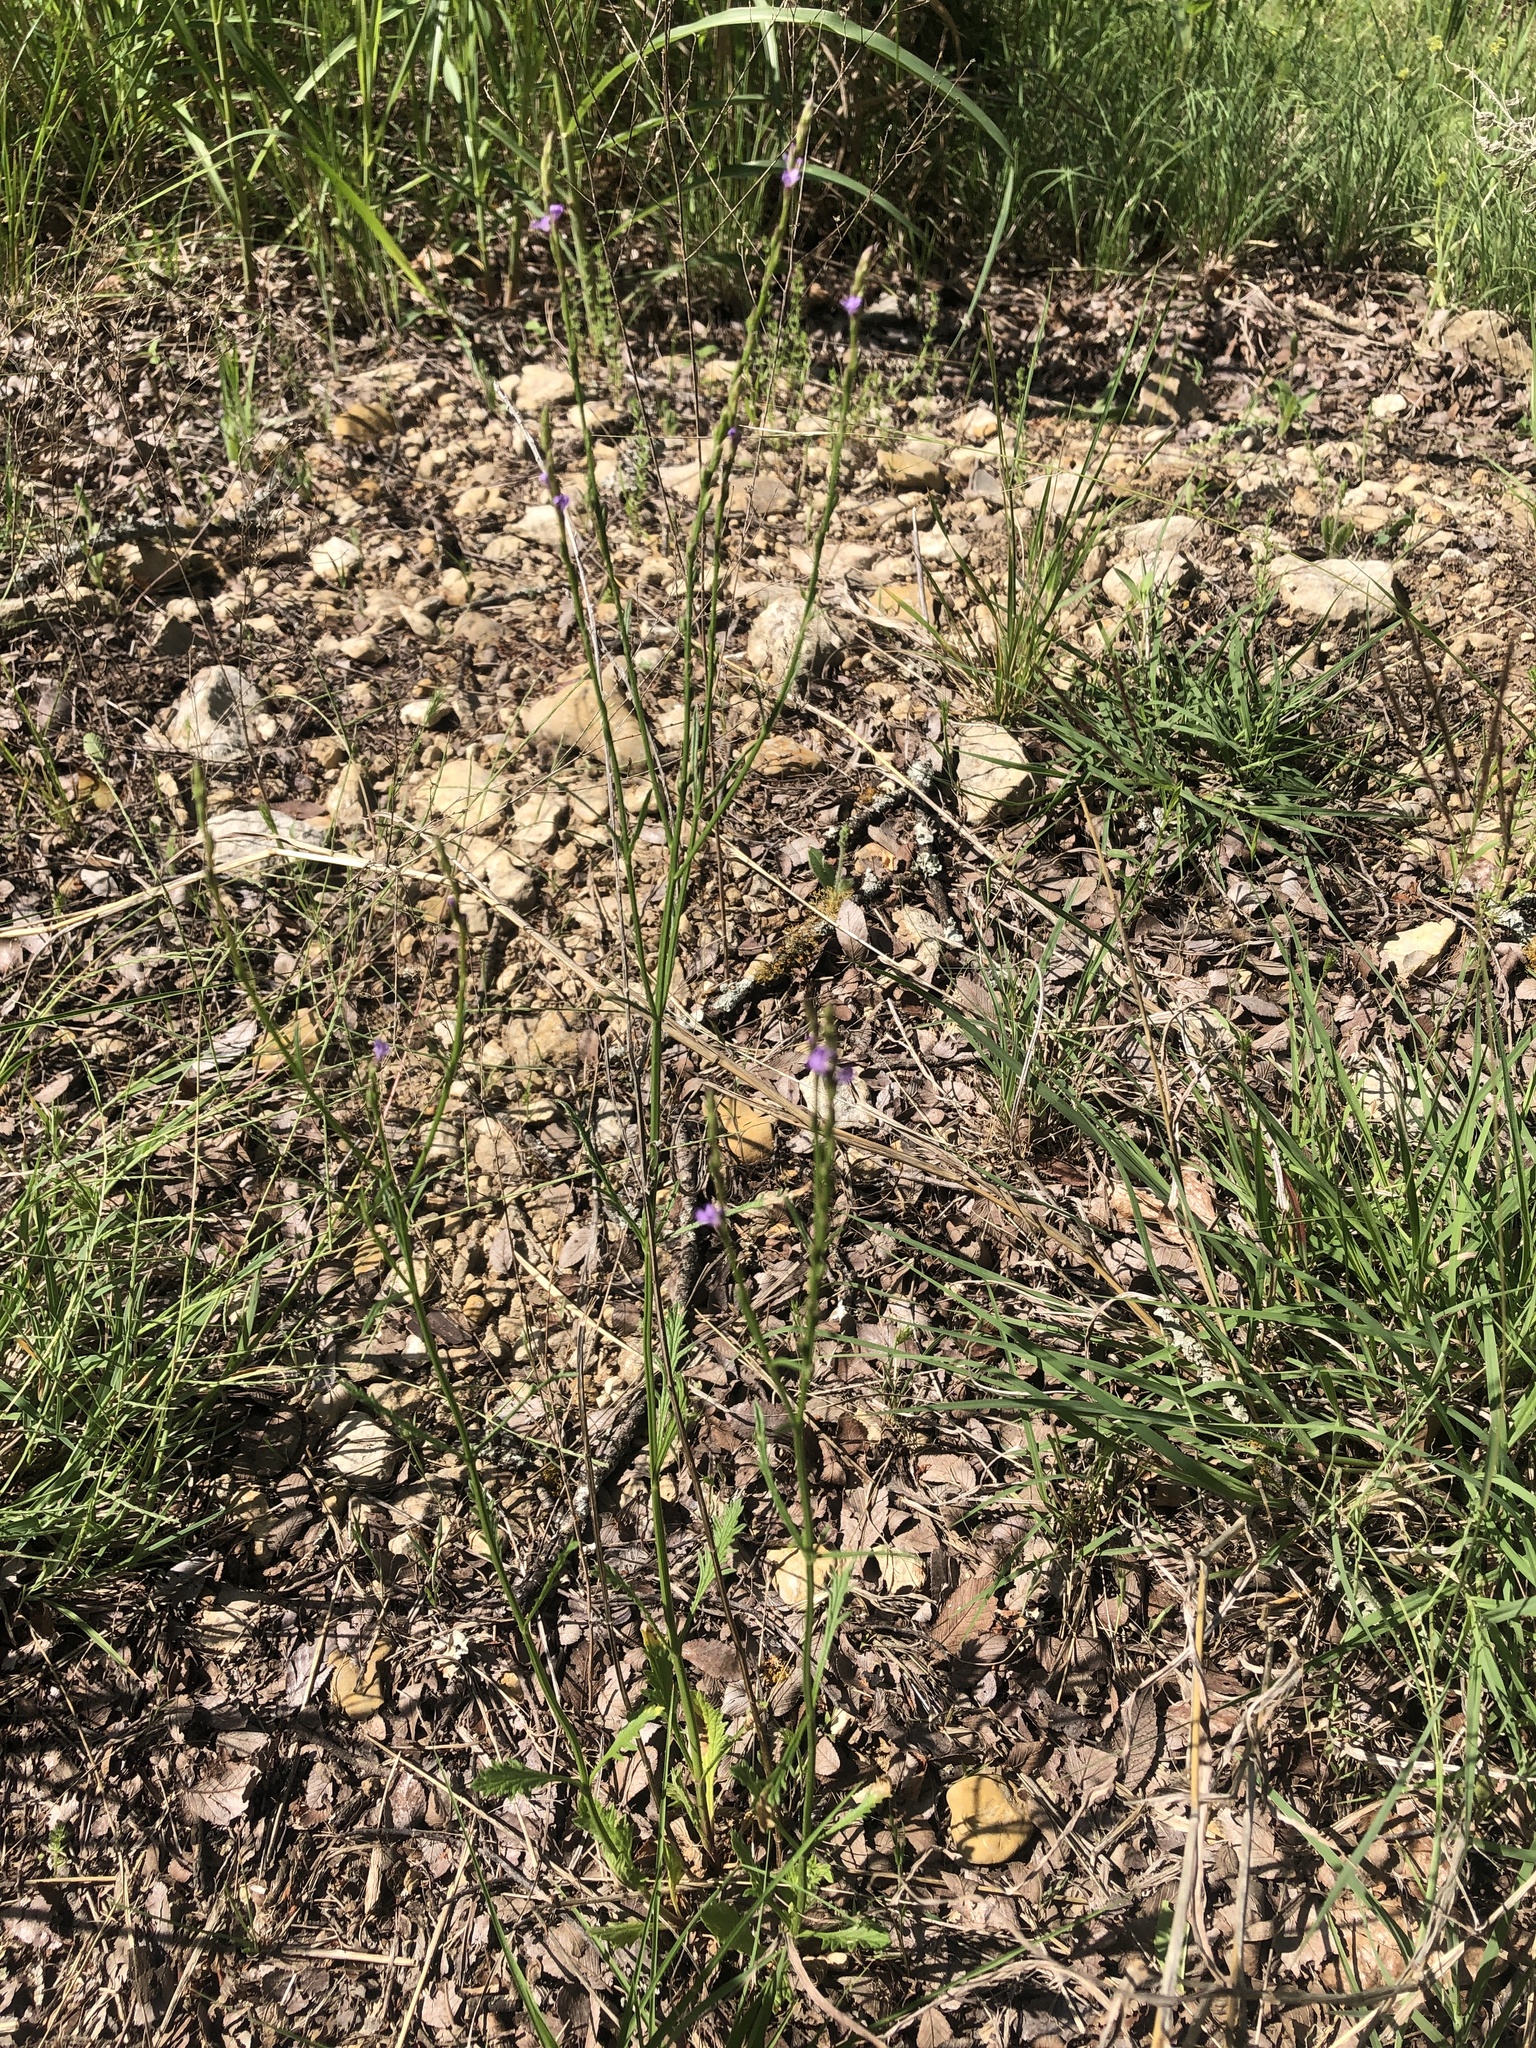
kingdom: Plantae
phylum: Tracheophyta
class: Magnoliopsida
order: Lamiales
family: Verbenaceae
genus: Verbena
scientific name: Verbena halei
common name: Texas vervain
